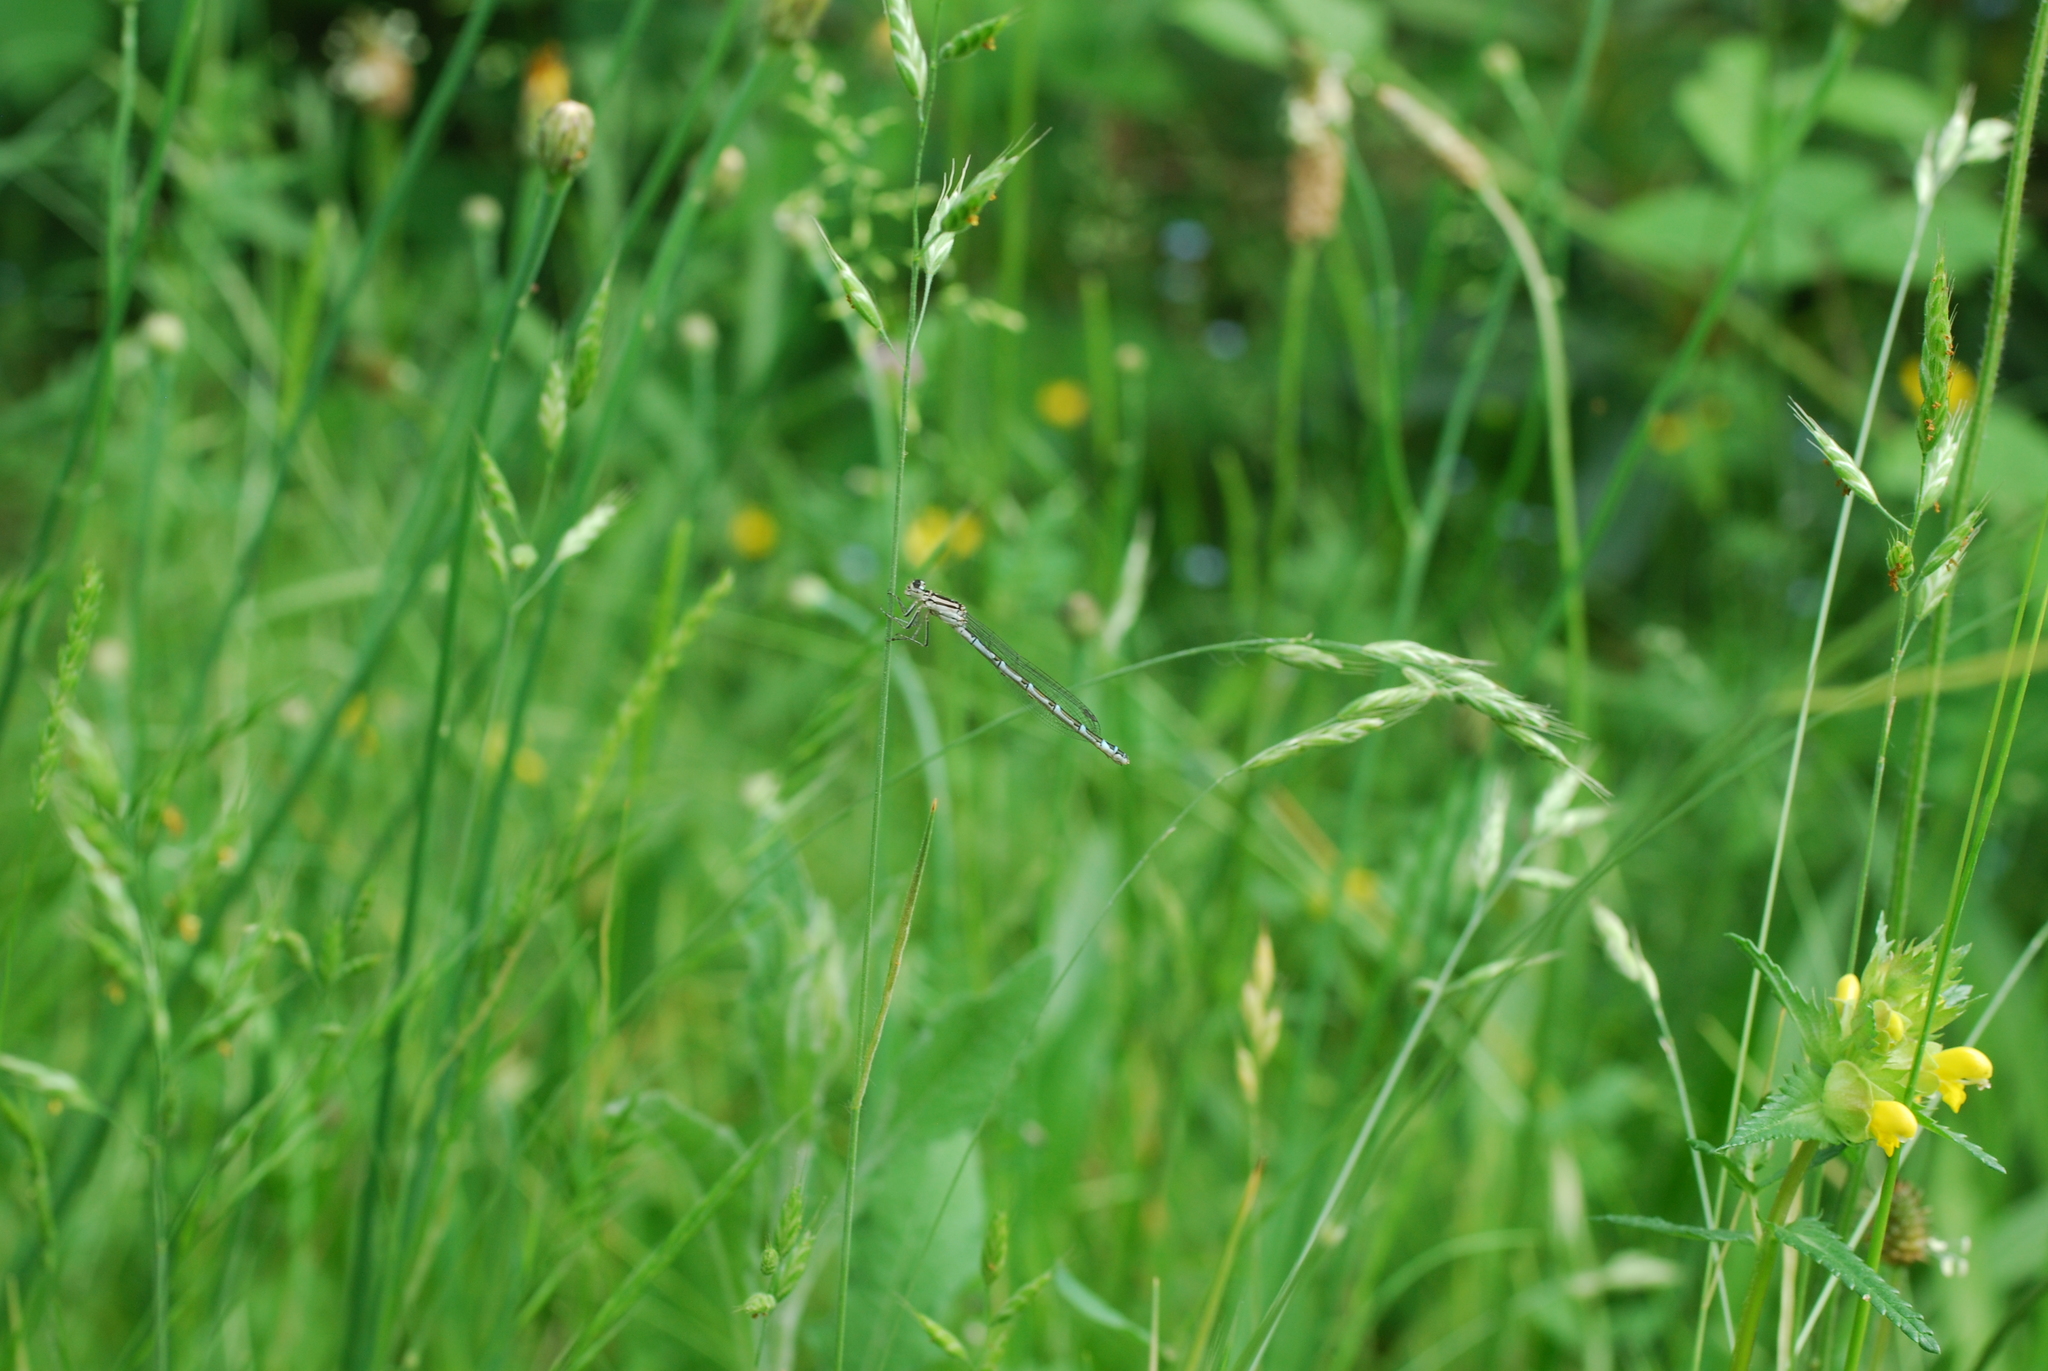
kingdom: Animalia
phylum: Arthropoda
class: Insecta
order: Odonata
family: Coenagrionidae
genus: Enallagma
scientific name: Enallagma cyathigerum
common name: Common blue damselfly
